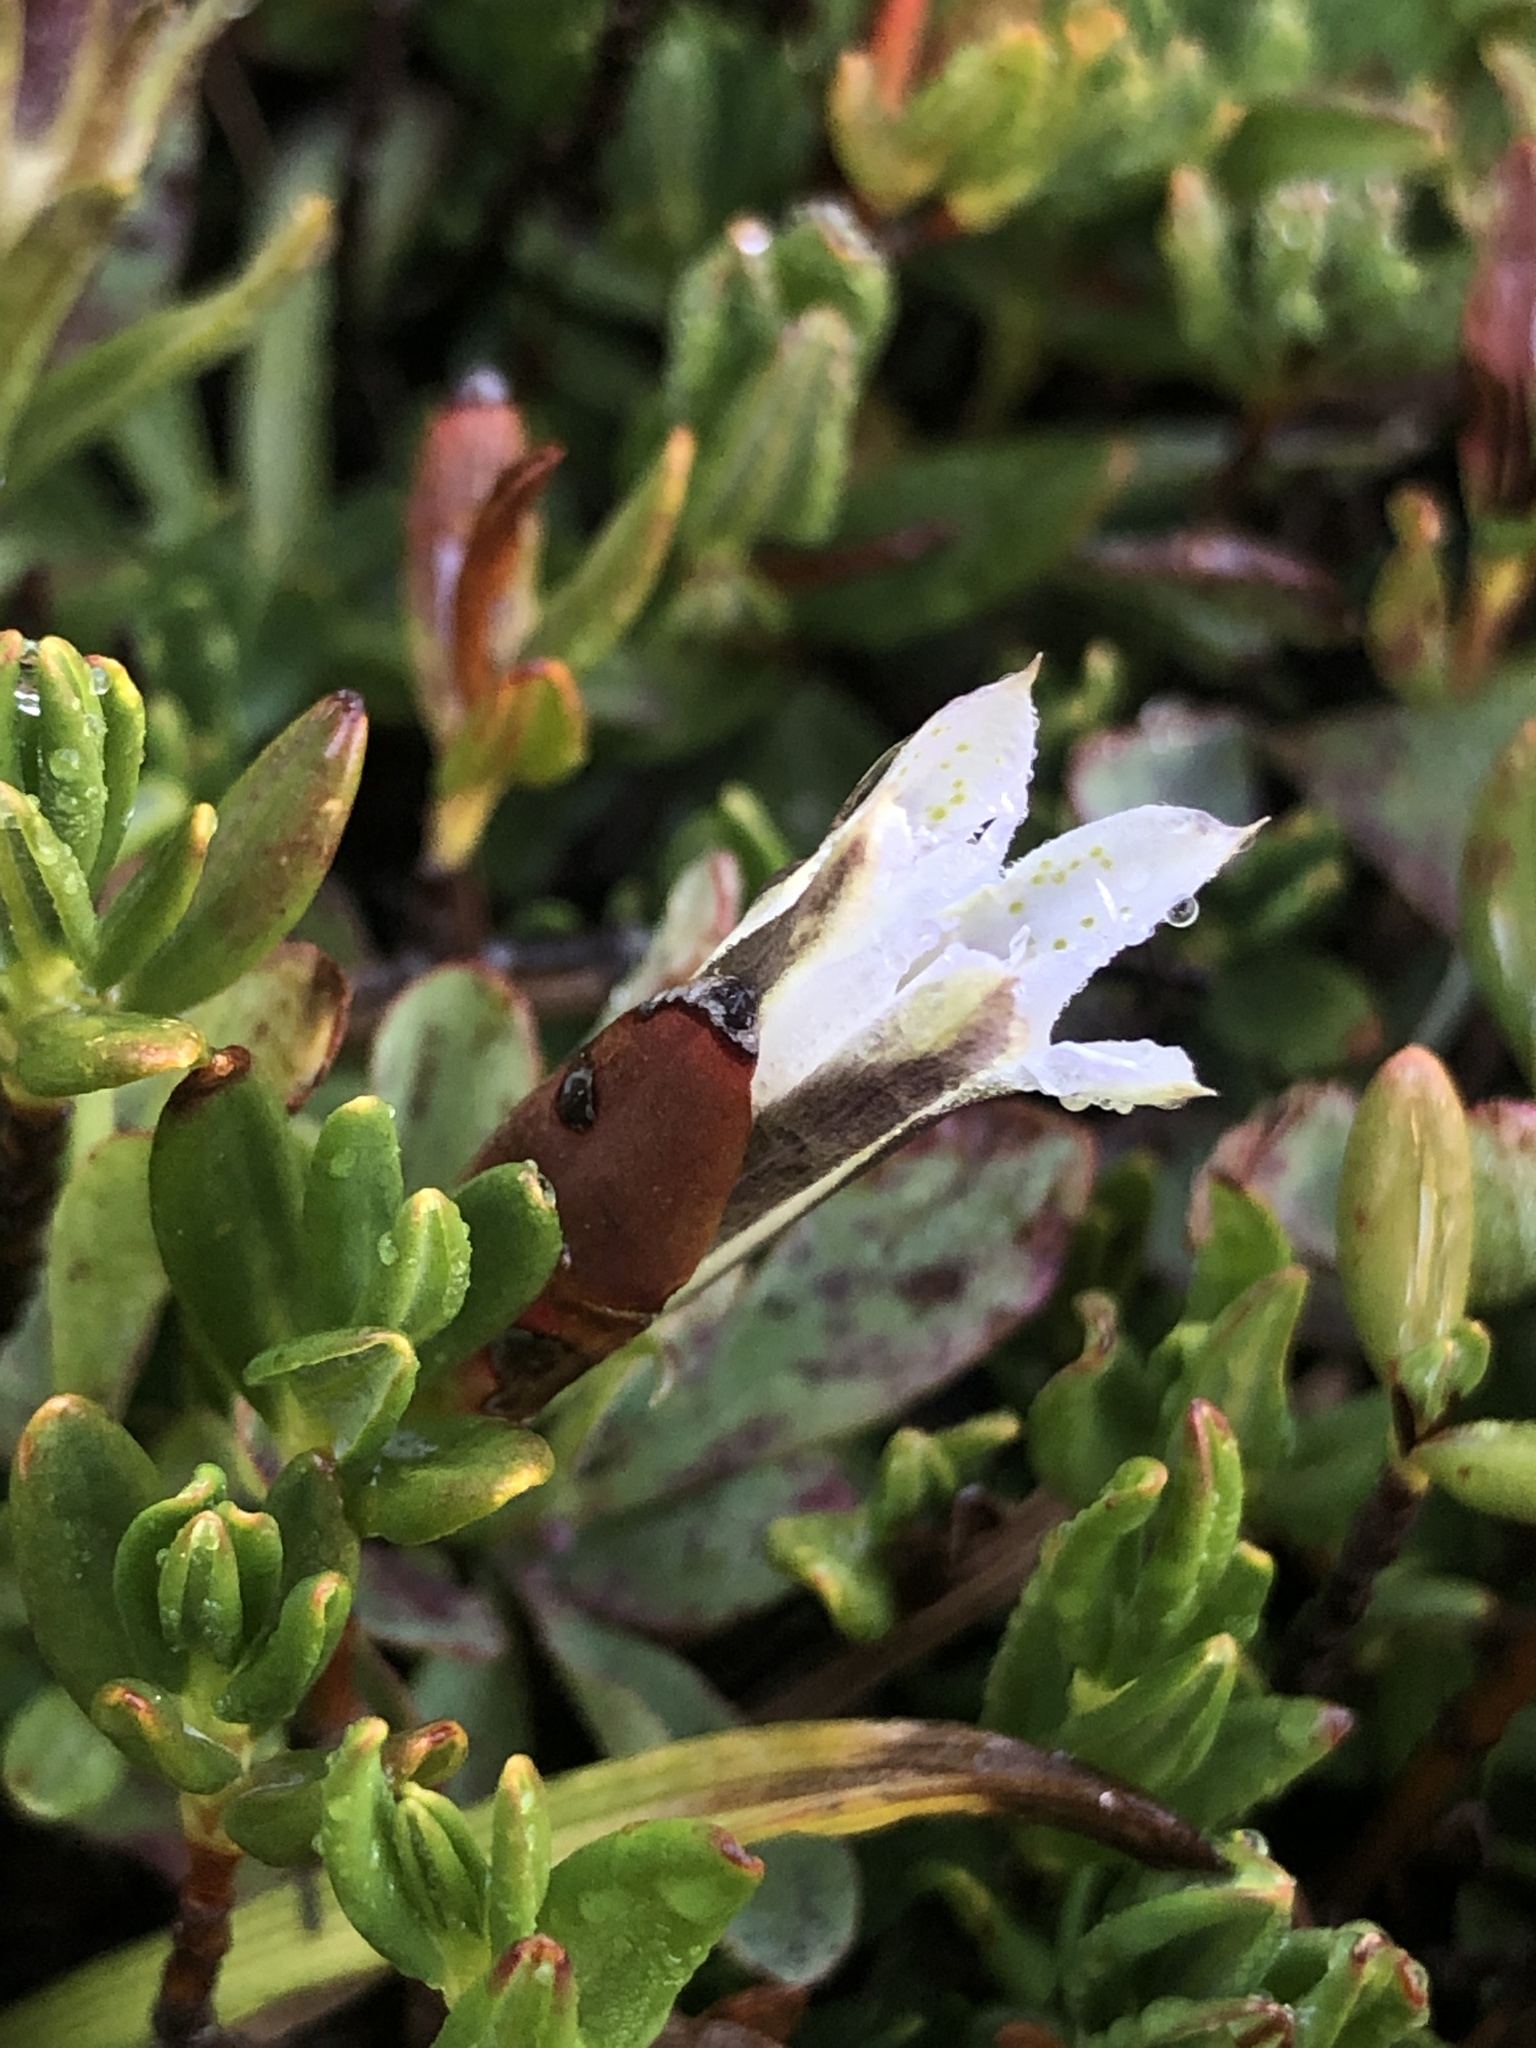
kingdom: Plantae
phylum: Tracheophyta
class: Magnoliopsida
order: Gentianales
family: Gentianaceae
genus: Gentiana
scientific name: Gentiana newberryi
